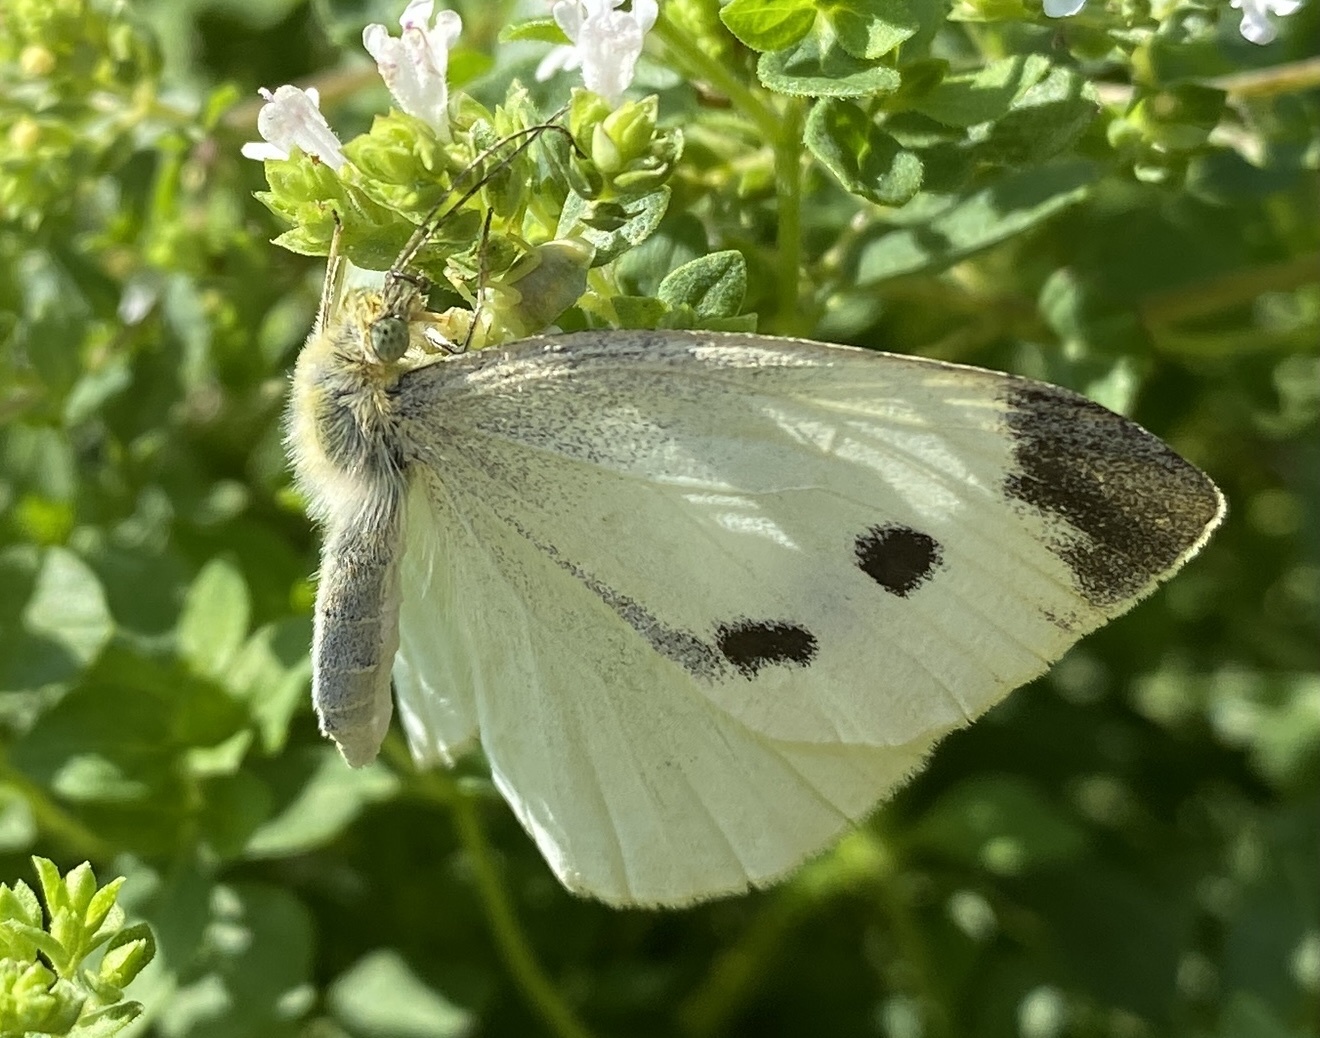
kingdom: Animalia
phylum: Arthropoda
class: Insecta
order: Lepidoptera
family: Pieridae
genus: Pieris
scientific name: Pieris rapae
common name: Small white
